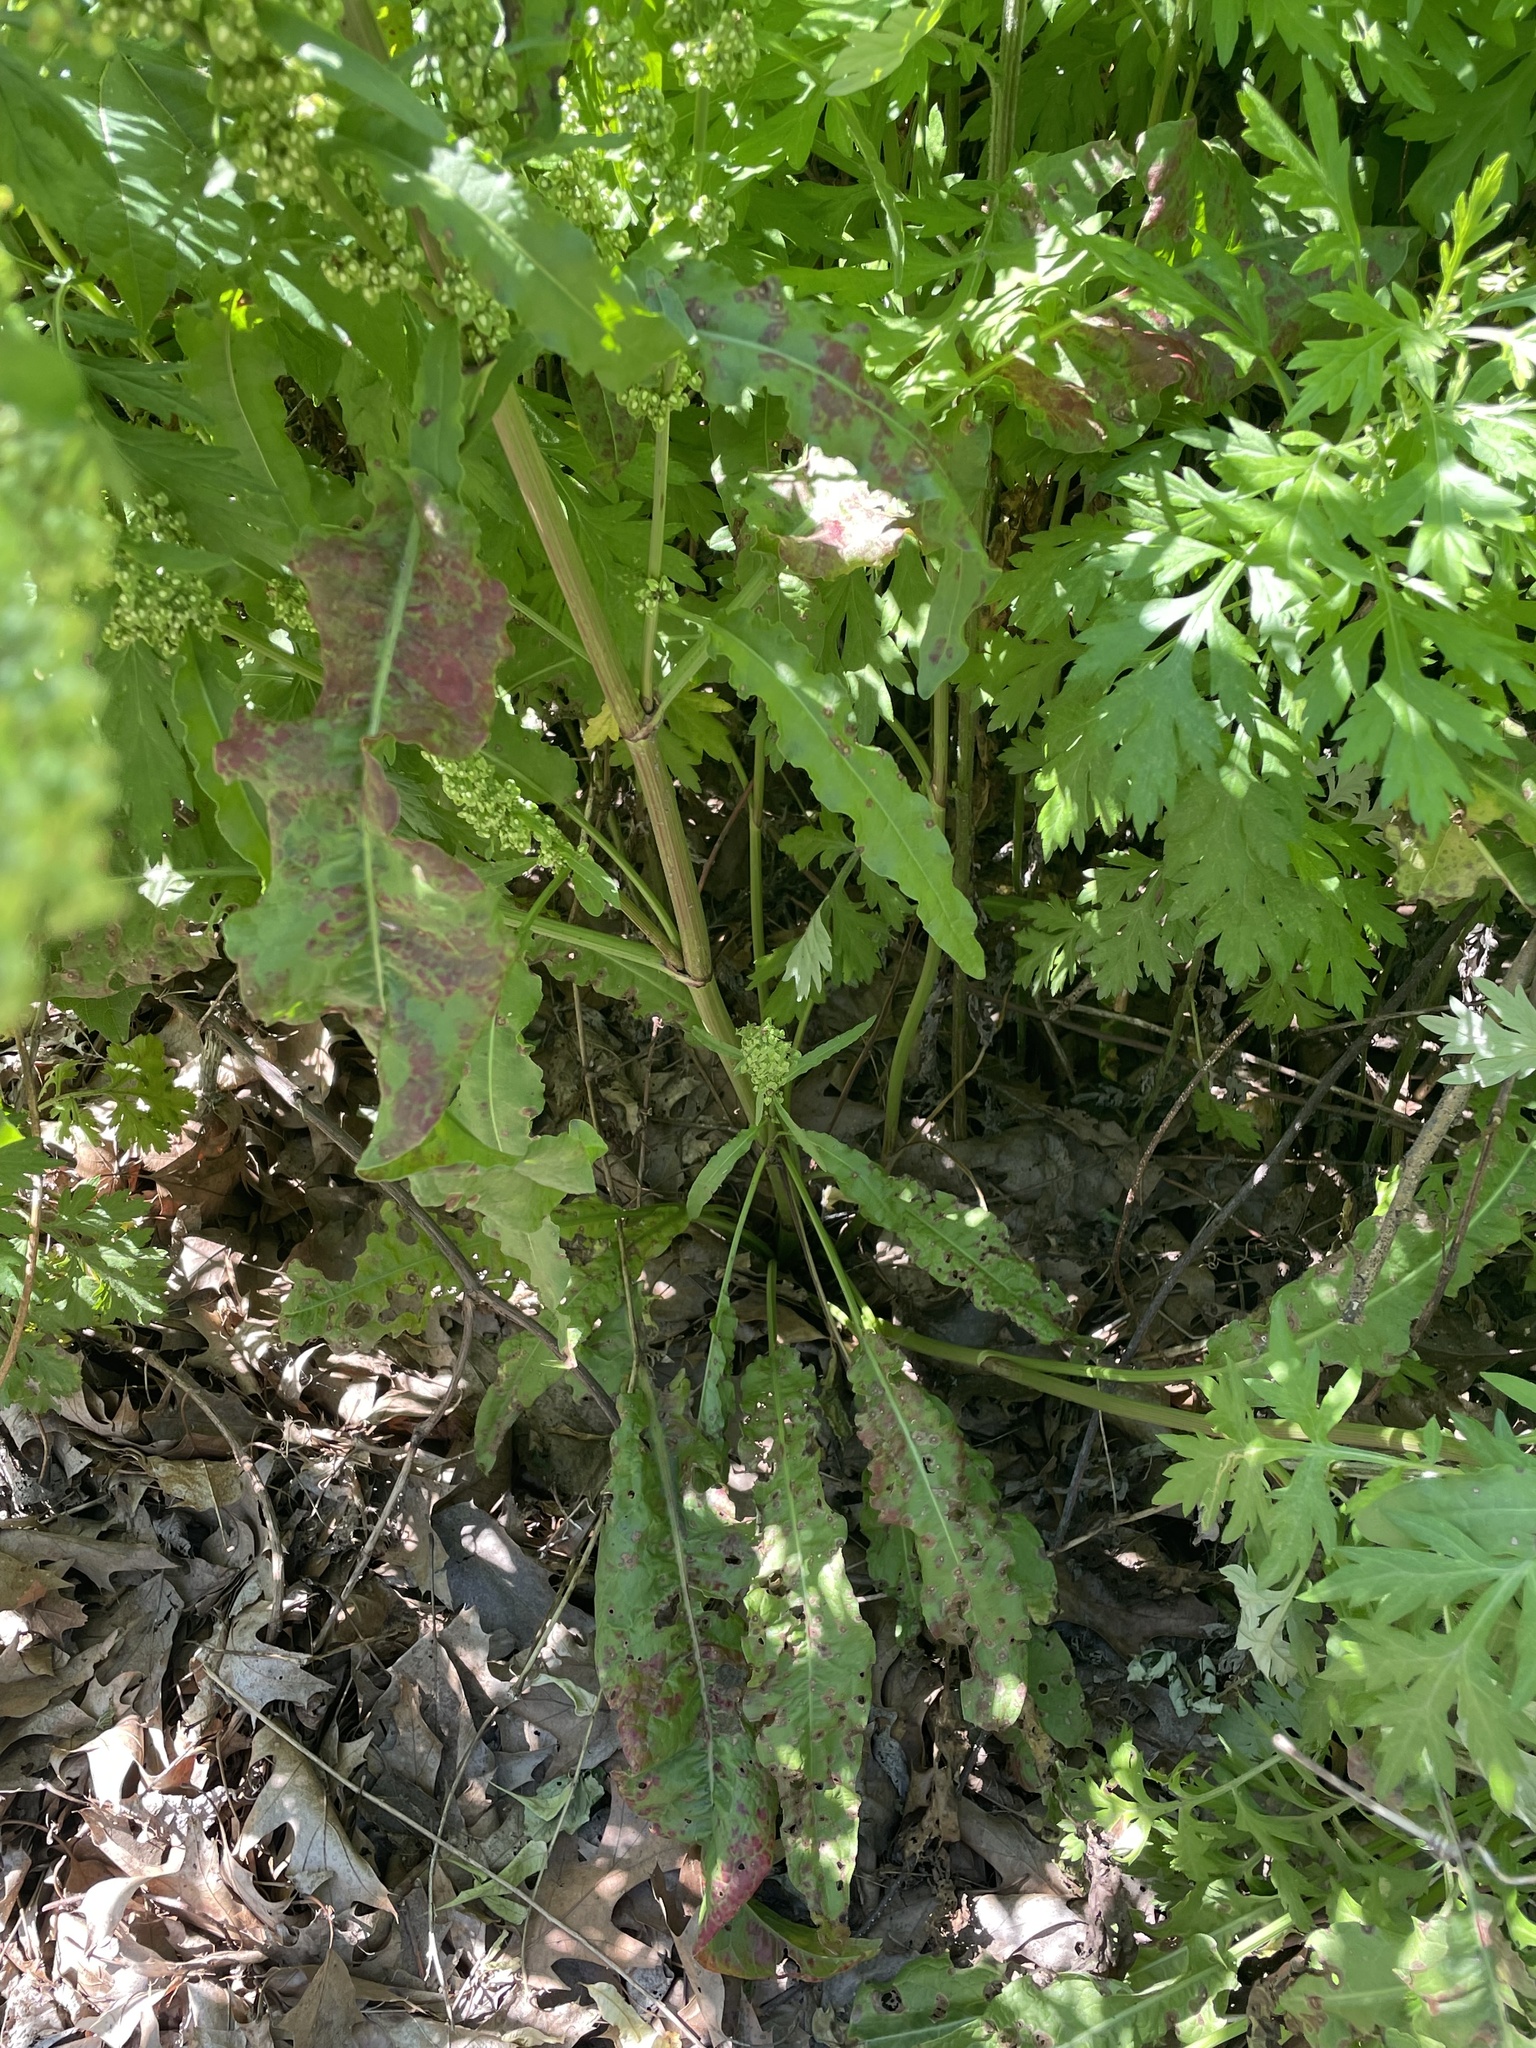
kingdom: Plantae
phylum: Tracheophyta
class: Magnoliopsida
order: Caryophyllales
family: Polygonaceae
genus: Rumex
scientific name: Rumex crispus
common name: Curled dock
